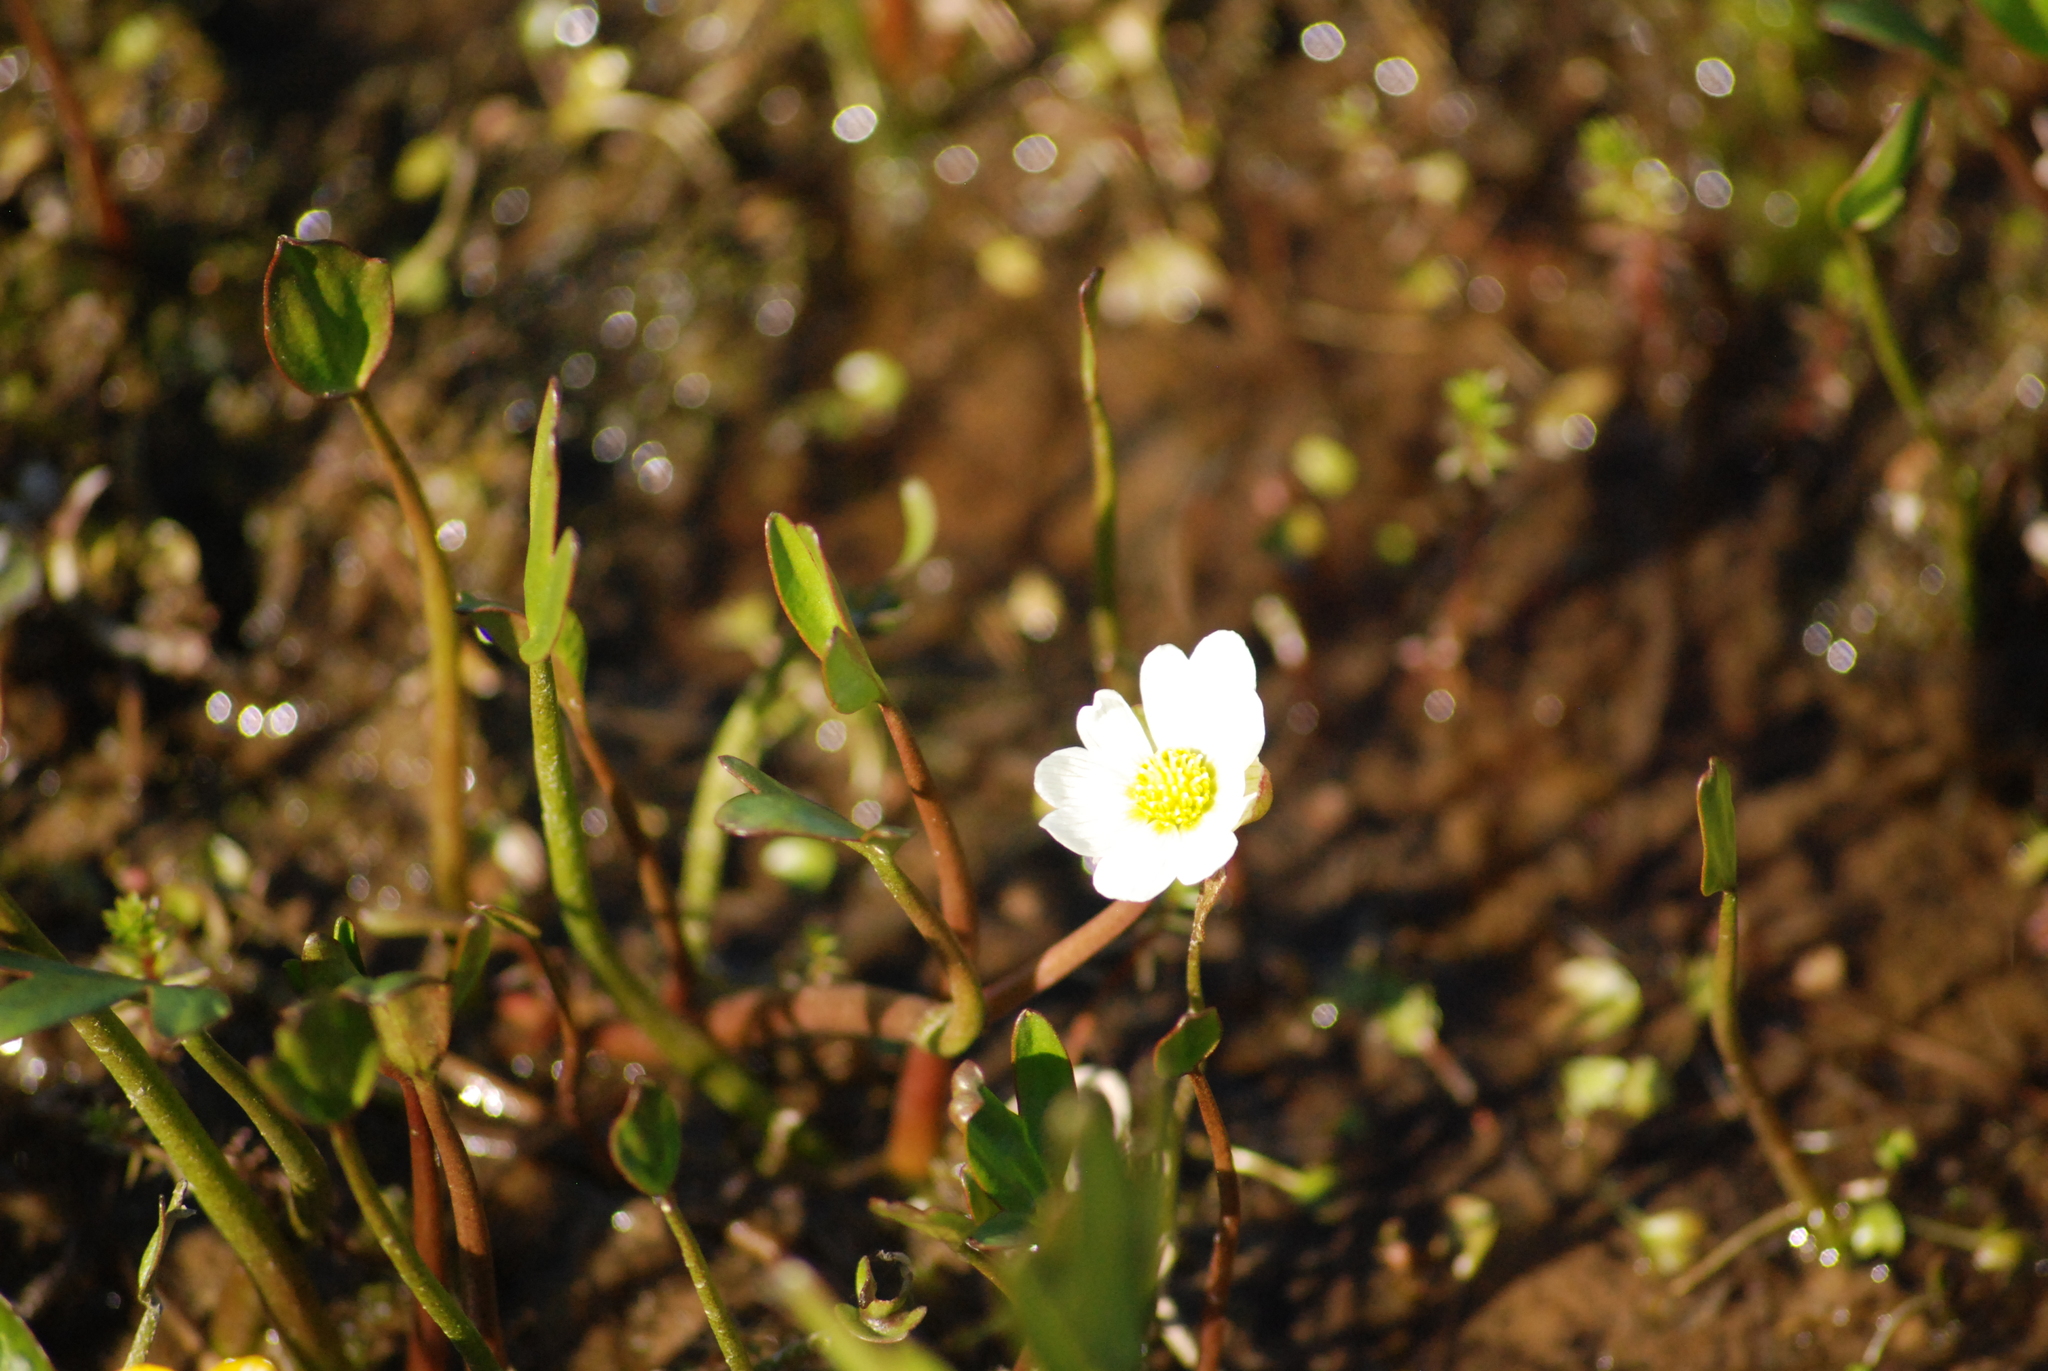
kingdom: Plantae
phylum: Tracheophyta
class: Magnoliopsida
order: Ranunculales
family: Ranunculaceae
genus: Coptidium
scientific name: Coptidium pallasii
